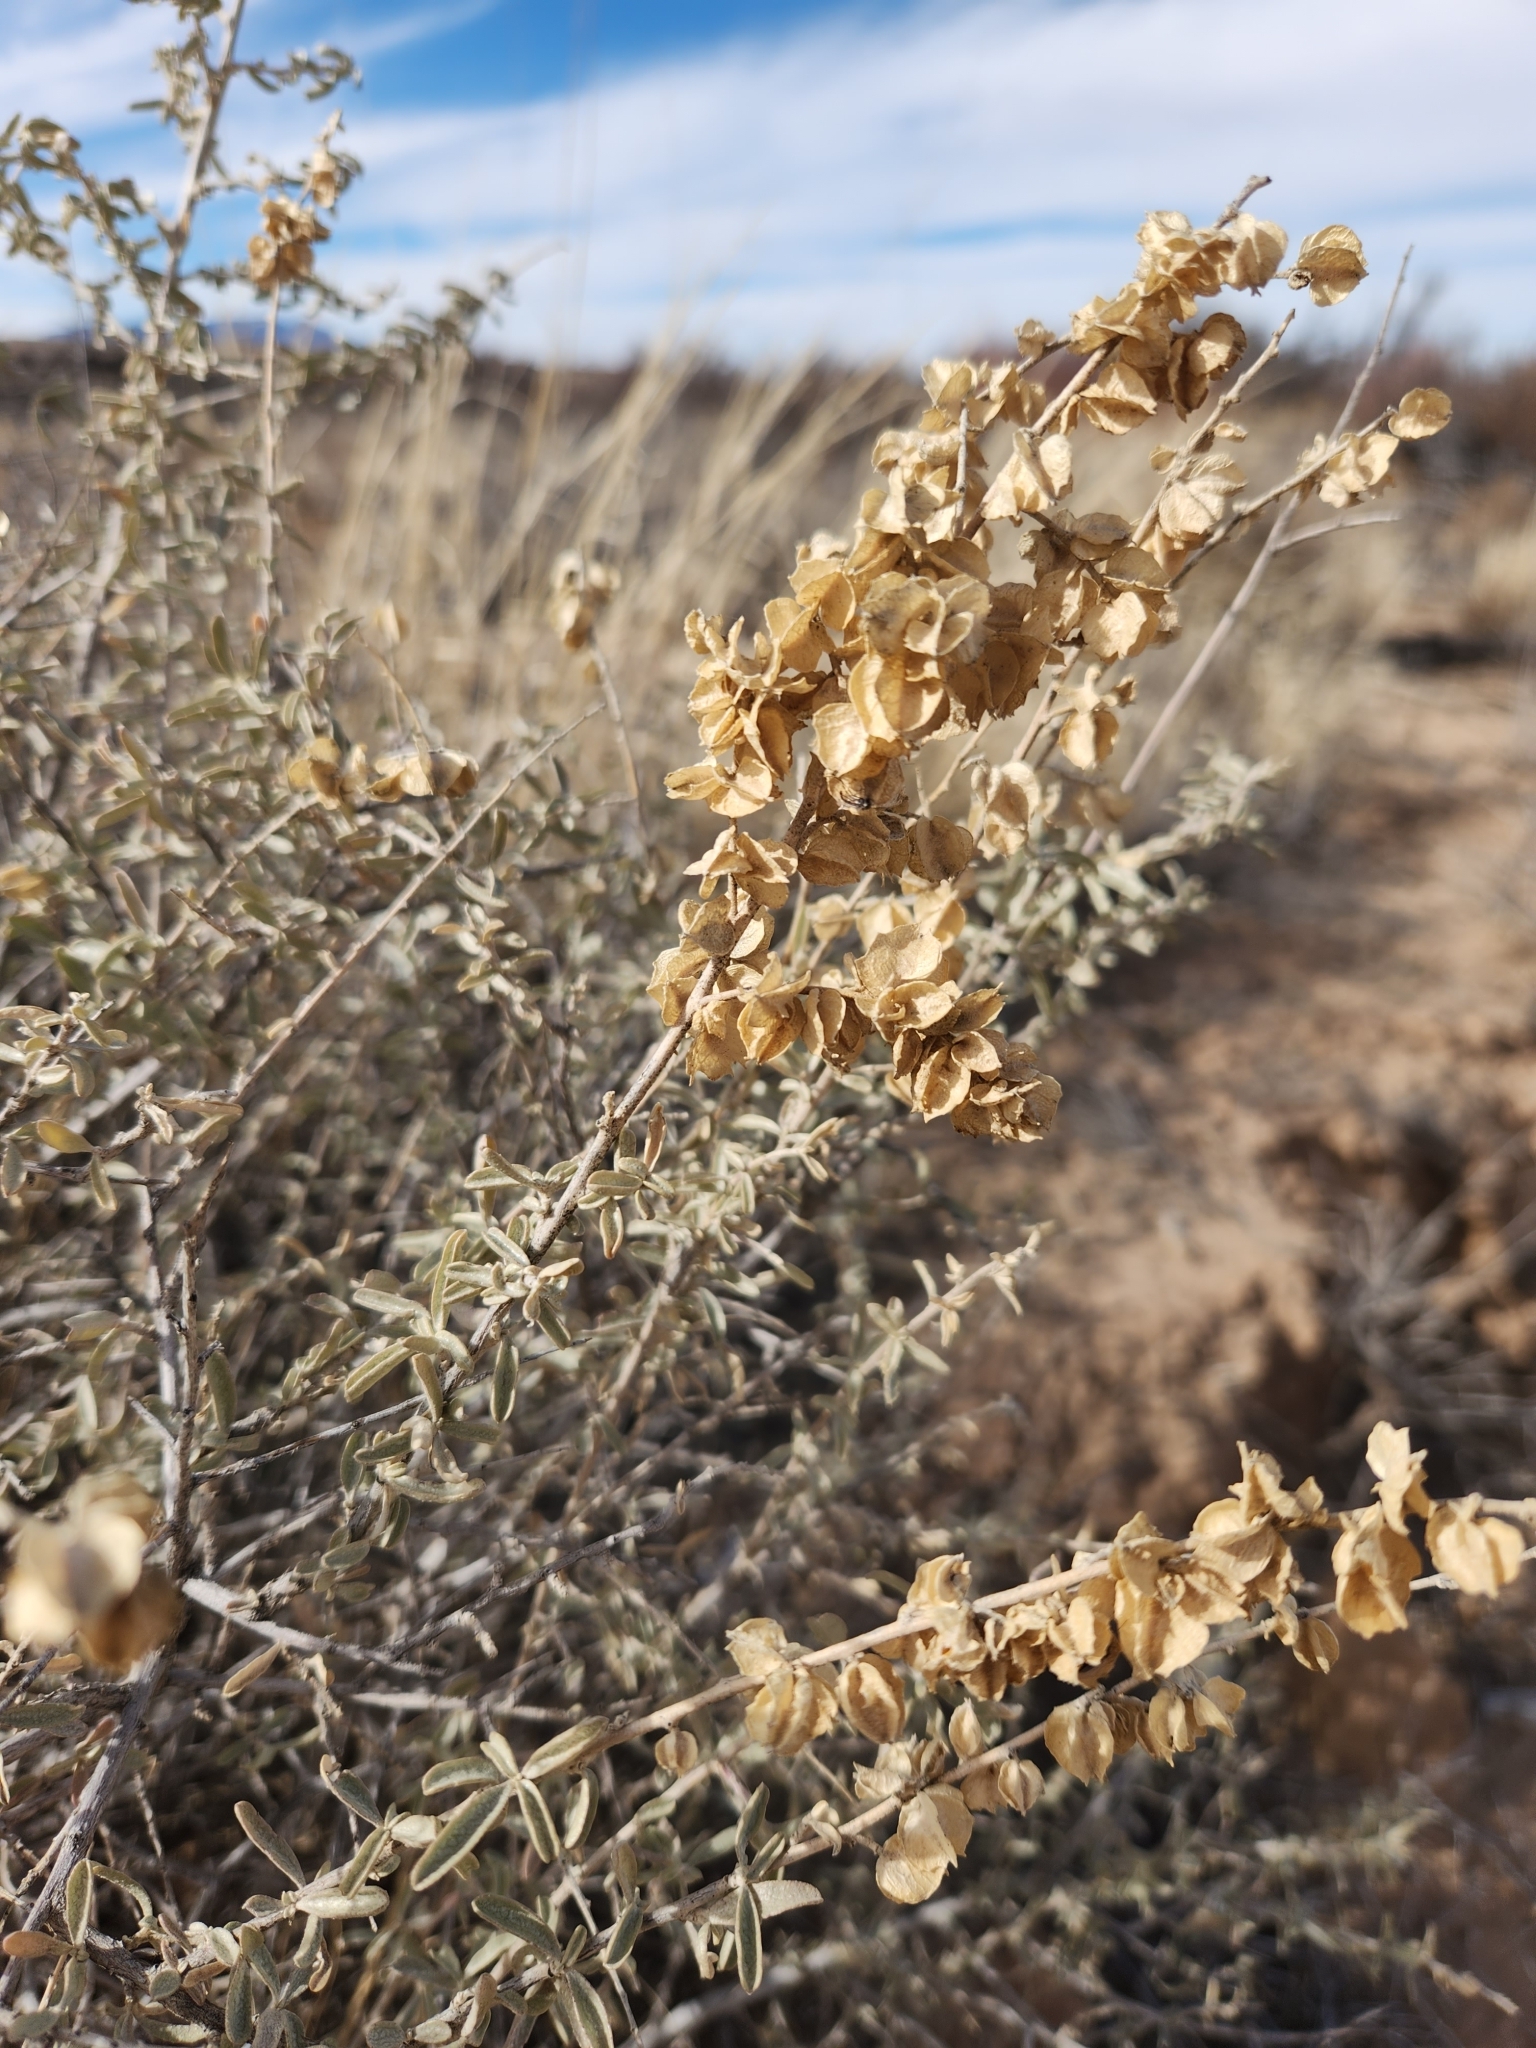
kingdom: Plantae
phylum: Tracheophyta
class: Magnoliopsida
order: Caryophyllales
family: Amaranthaceae
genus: Atriplex
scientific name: Atriplex canescens
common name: Four-wing saltbush
